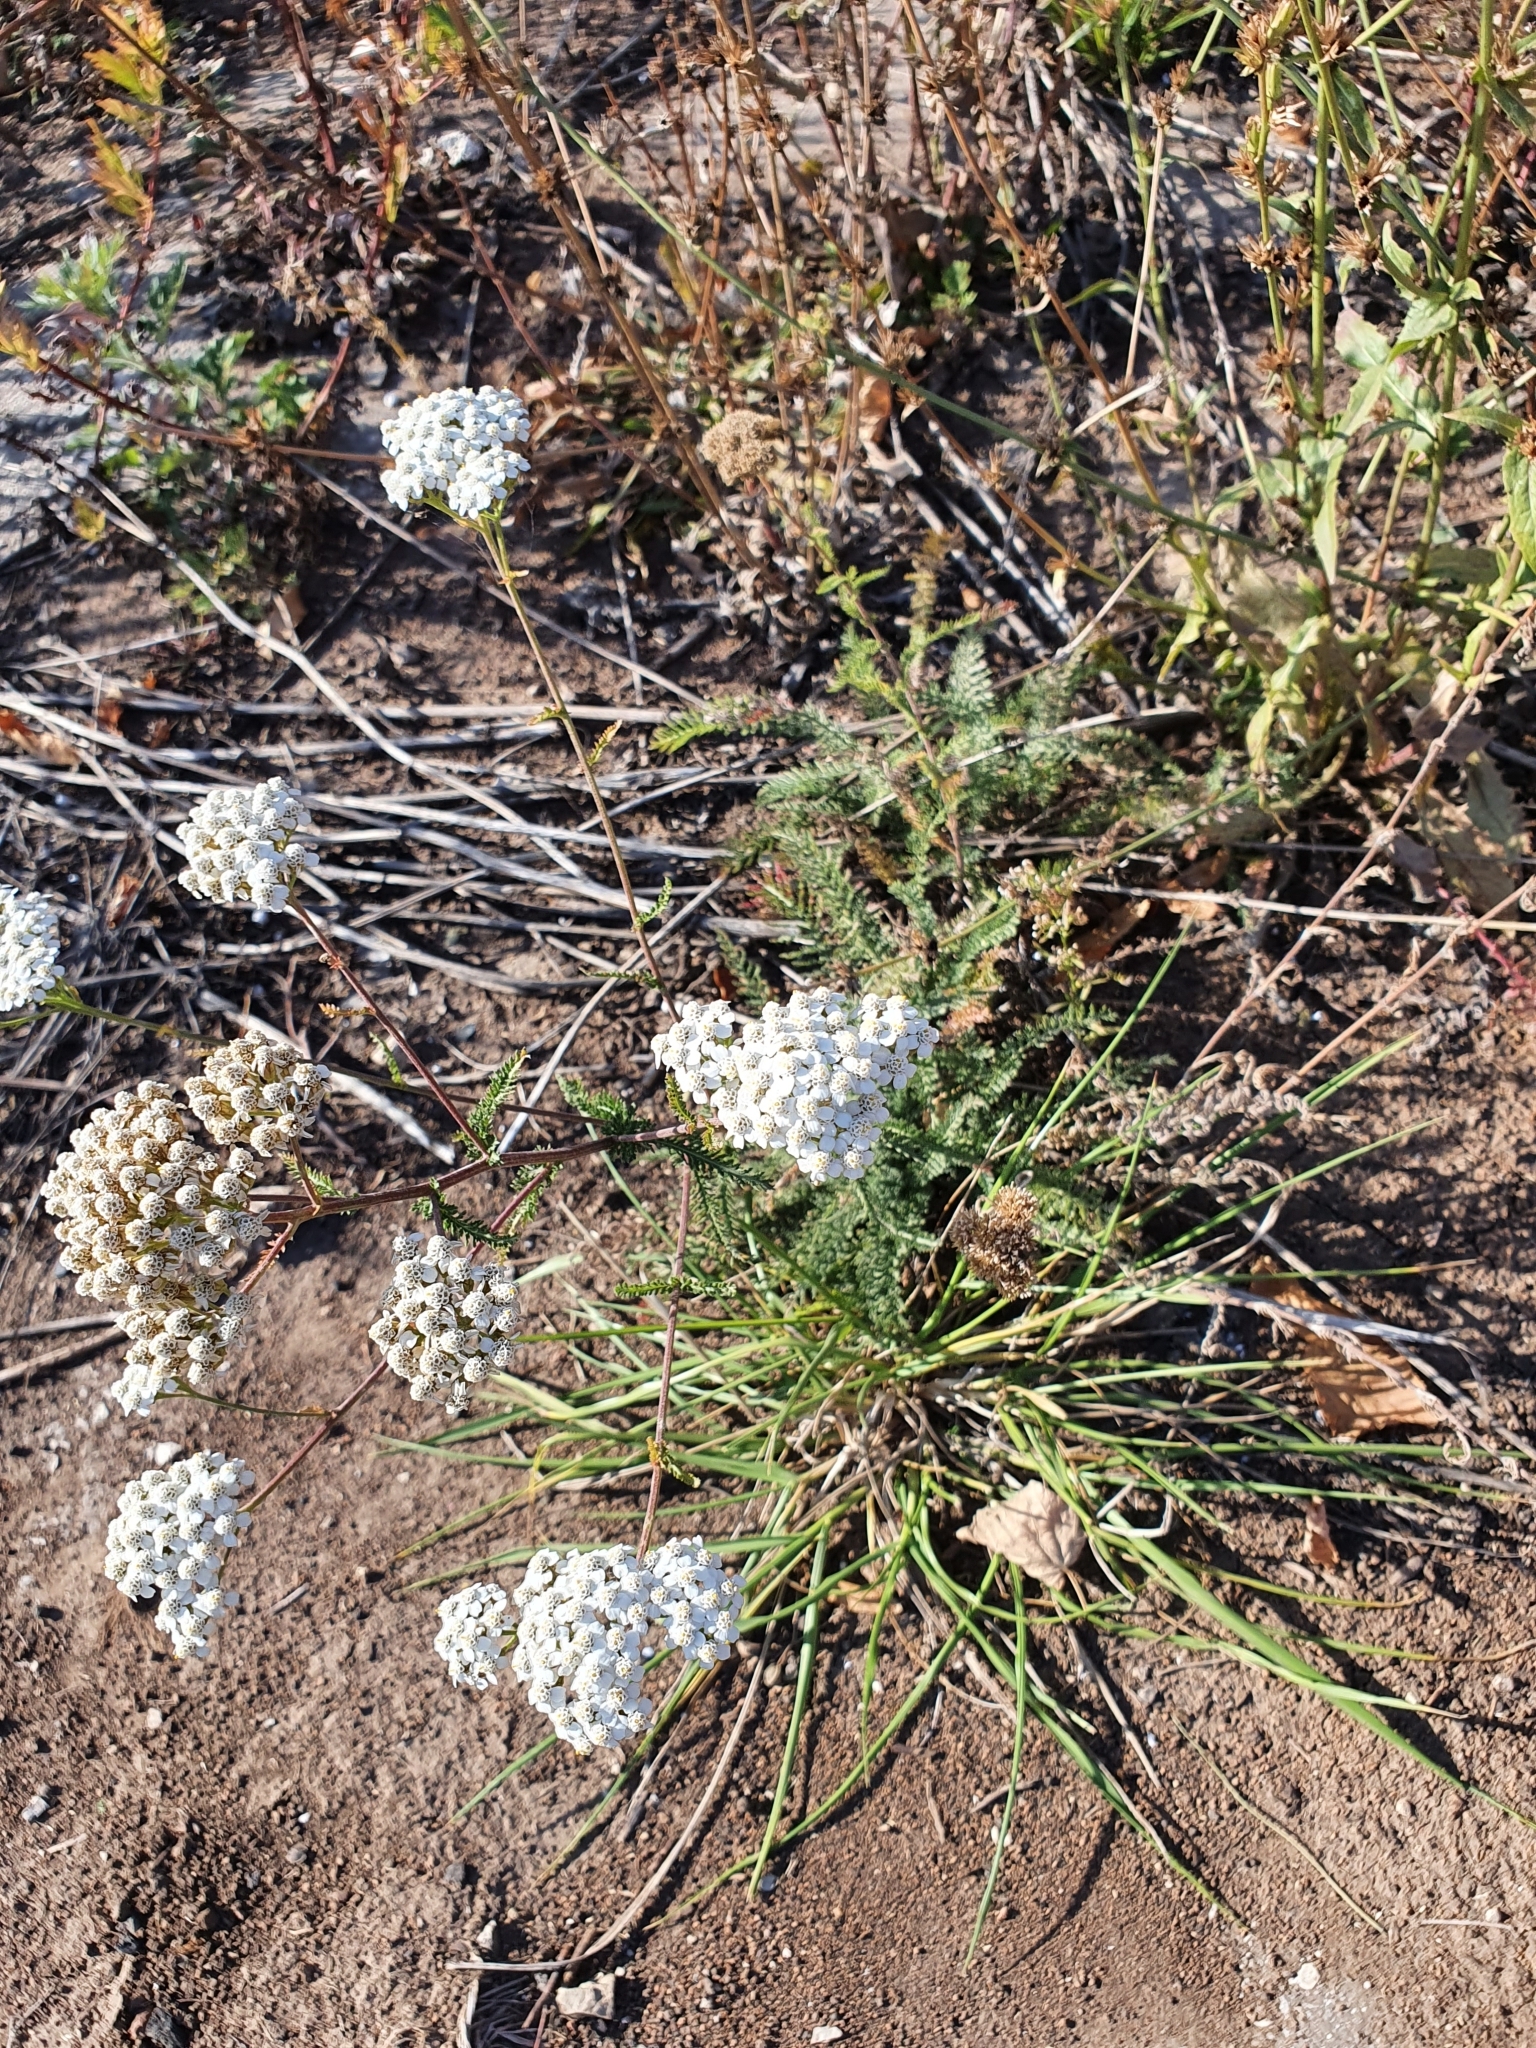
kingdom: Plantae
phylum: Tracheophyta
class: Magnoliopsida
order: Asterales
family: Asteraceae
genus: Achillea
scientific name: Achillea millefolium
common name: Yarrow
